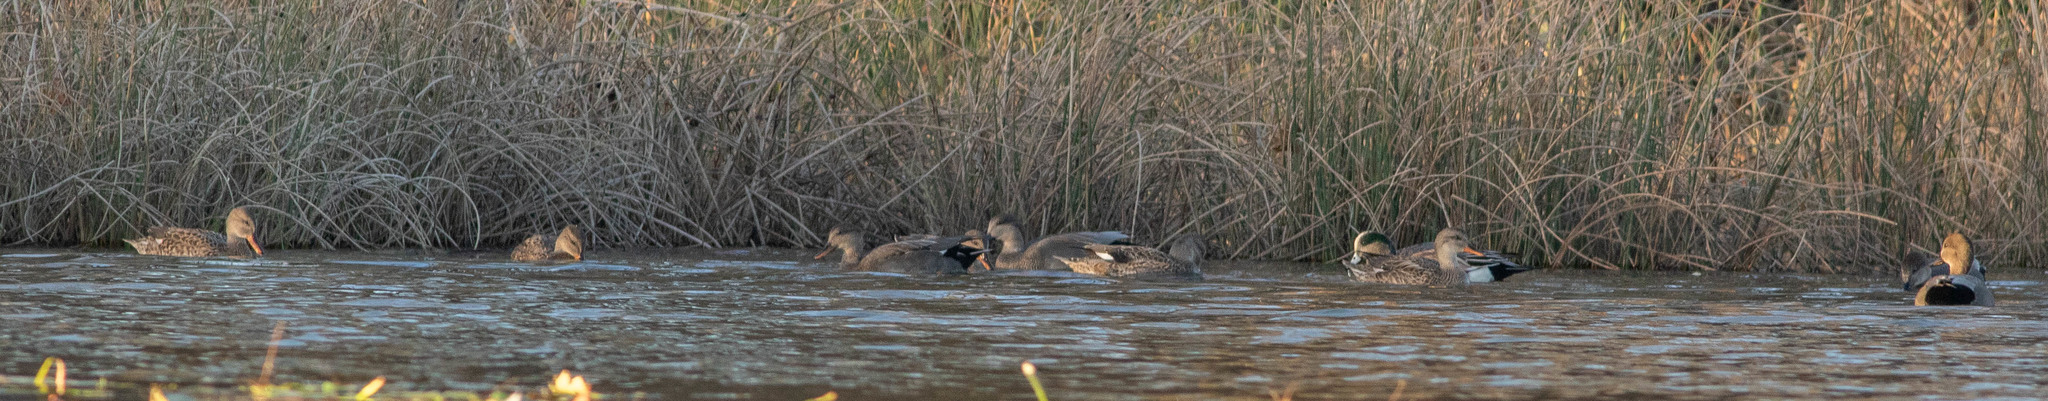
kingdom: Animalia
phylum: Chordata
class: Aves
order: Anseriformes
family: Anatidae
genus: Mareca
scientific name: Mareca strepera
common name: Gadwall
